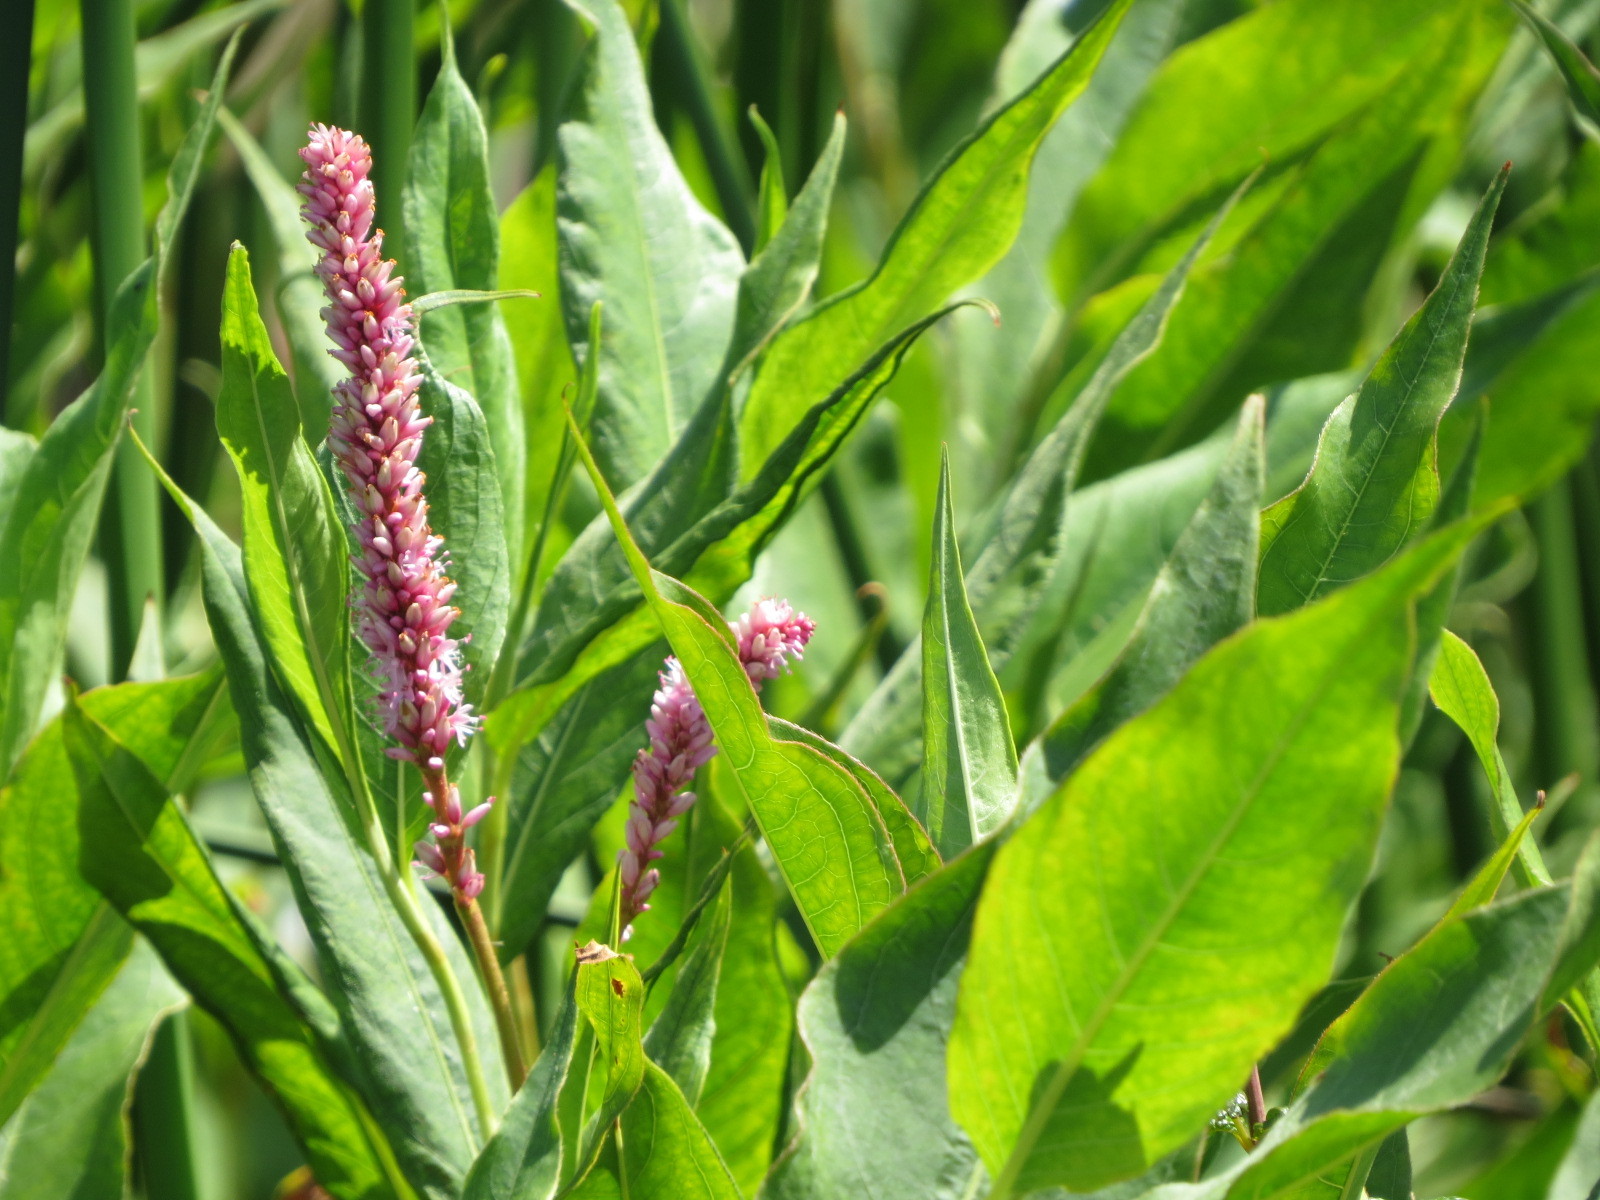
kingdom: Plantae
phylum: Tracheophyta
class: Magnoliopsida
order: Caryophyllales
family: Polygonaceae
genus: Persicaria
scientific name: Persicaria amphibia
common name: Amphibious bistort
